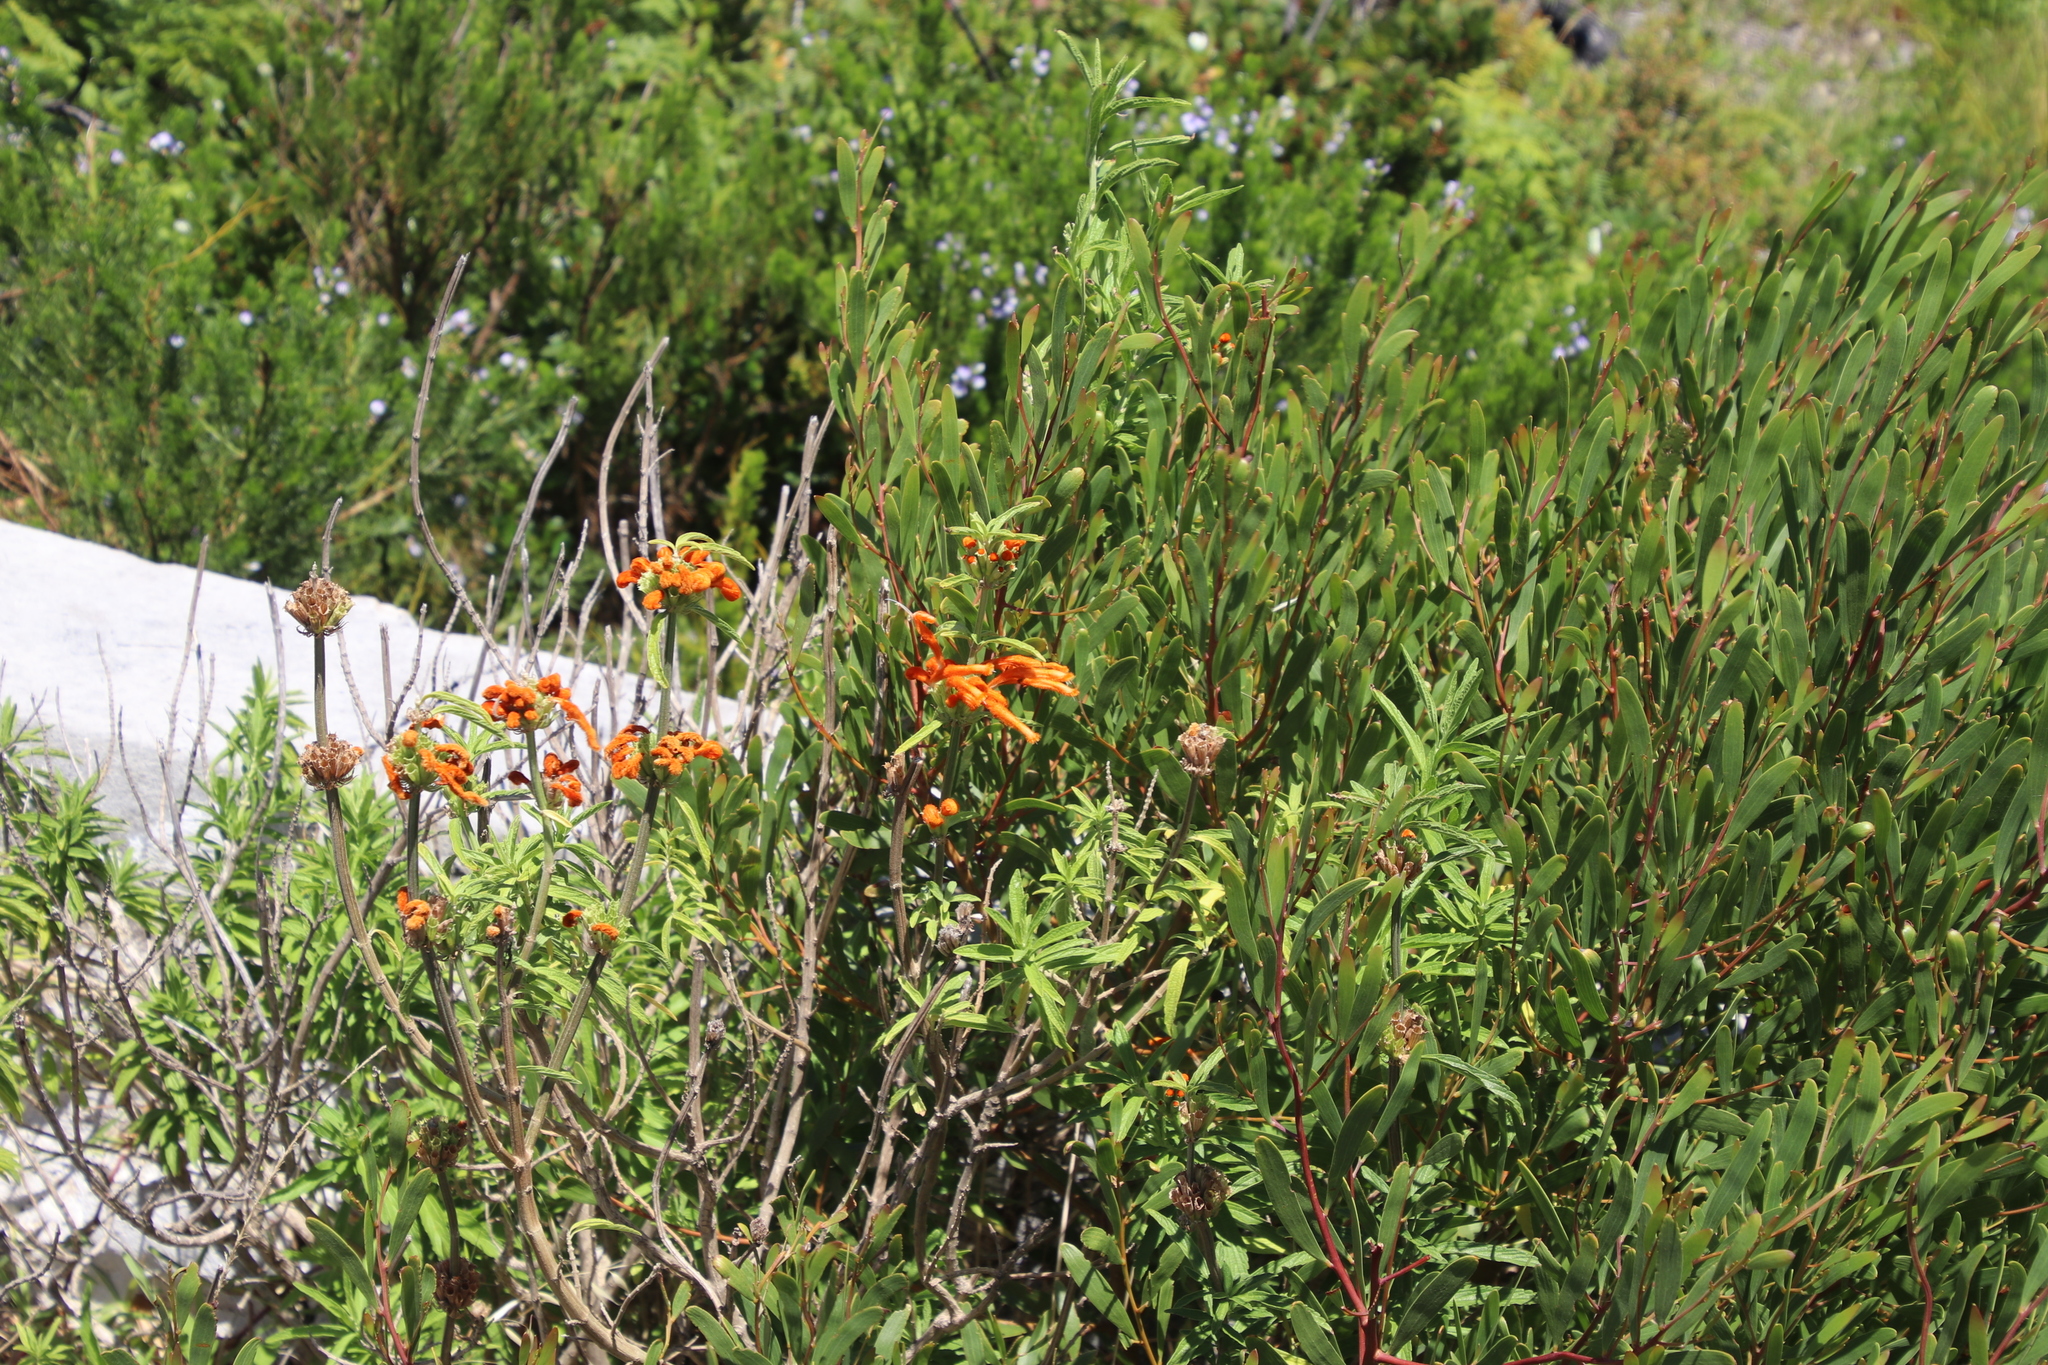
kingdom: Plantae
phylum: Tracheophyta
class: Magnoliopsida
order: Lamiales
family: Lamiaceae
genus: Leonotis
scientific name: Leonotis leonurus
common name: Lion's ear
